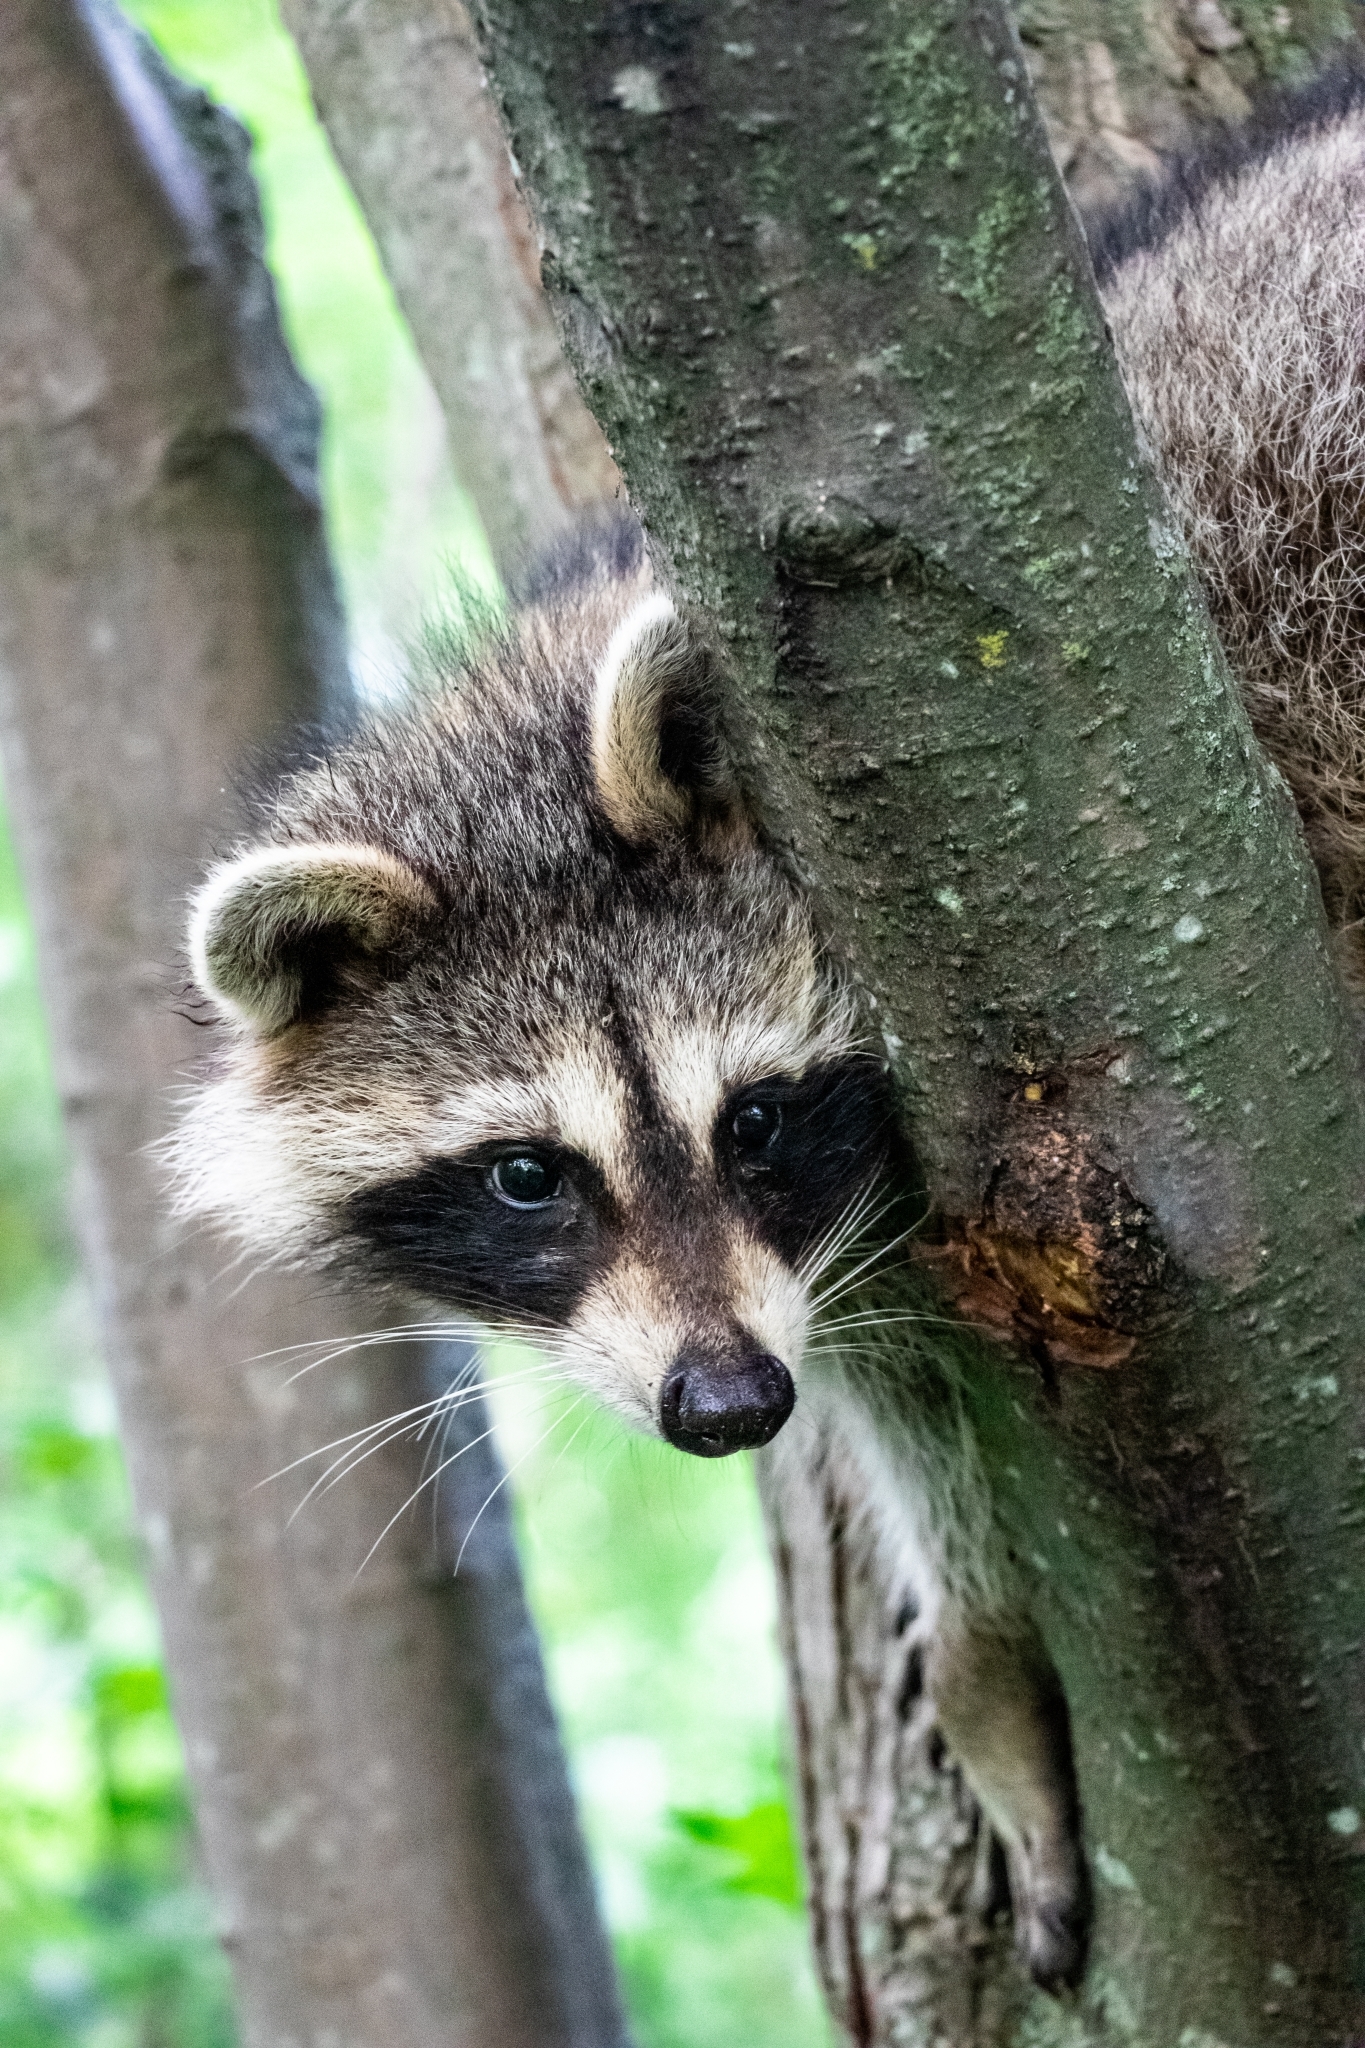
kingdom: Animalia
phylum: Chordata
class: Mammalia
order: Carnivora
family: Procyonidae
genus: Procyon
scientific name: Procyon lotor
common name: Raccoon
